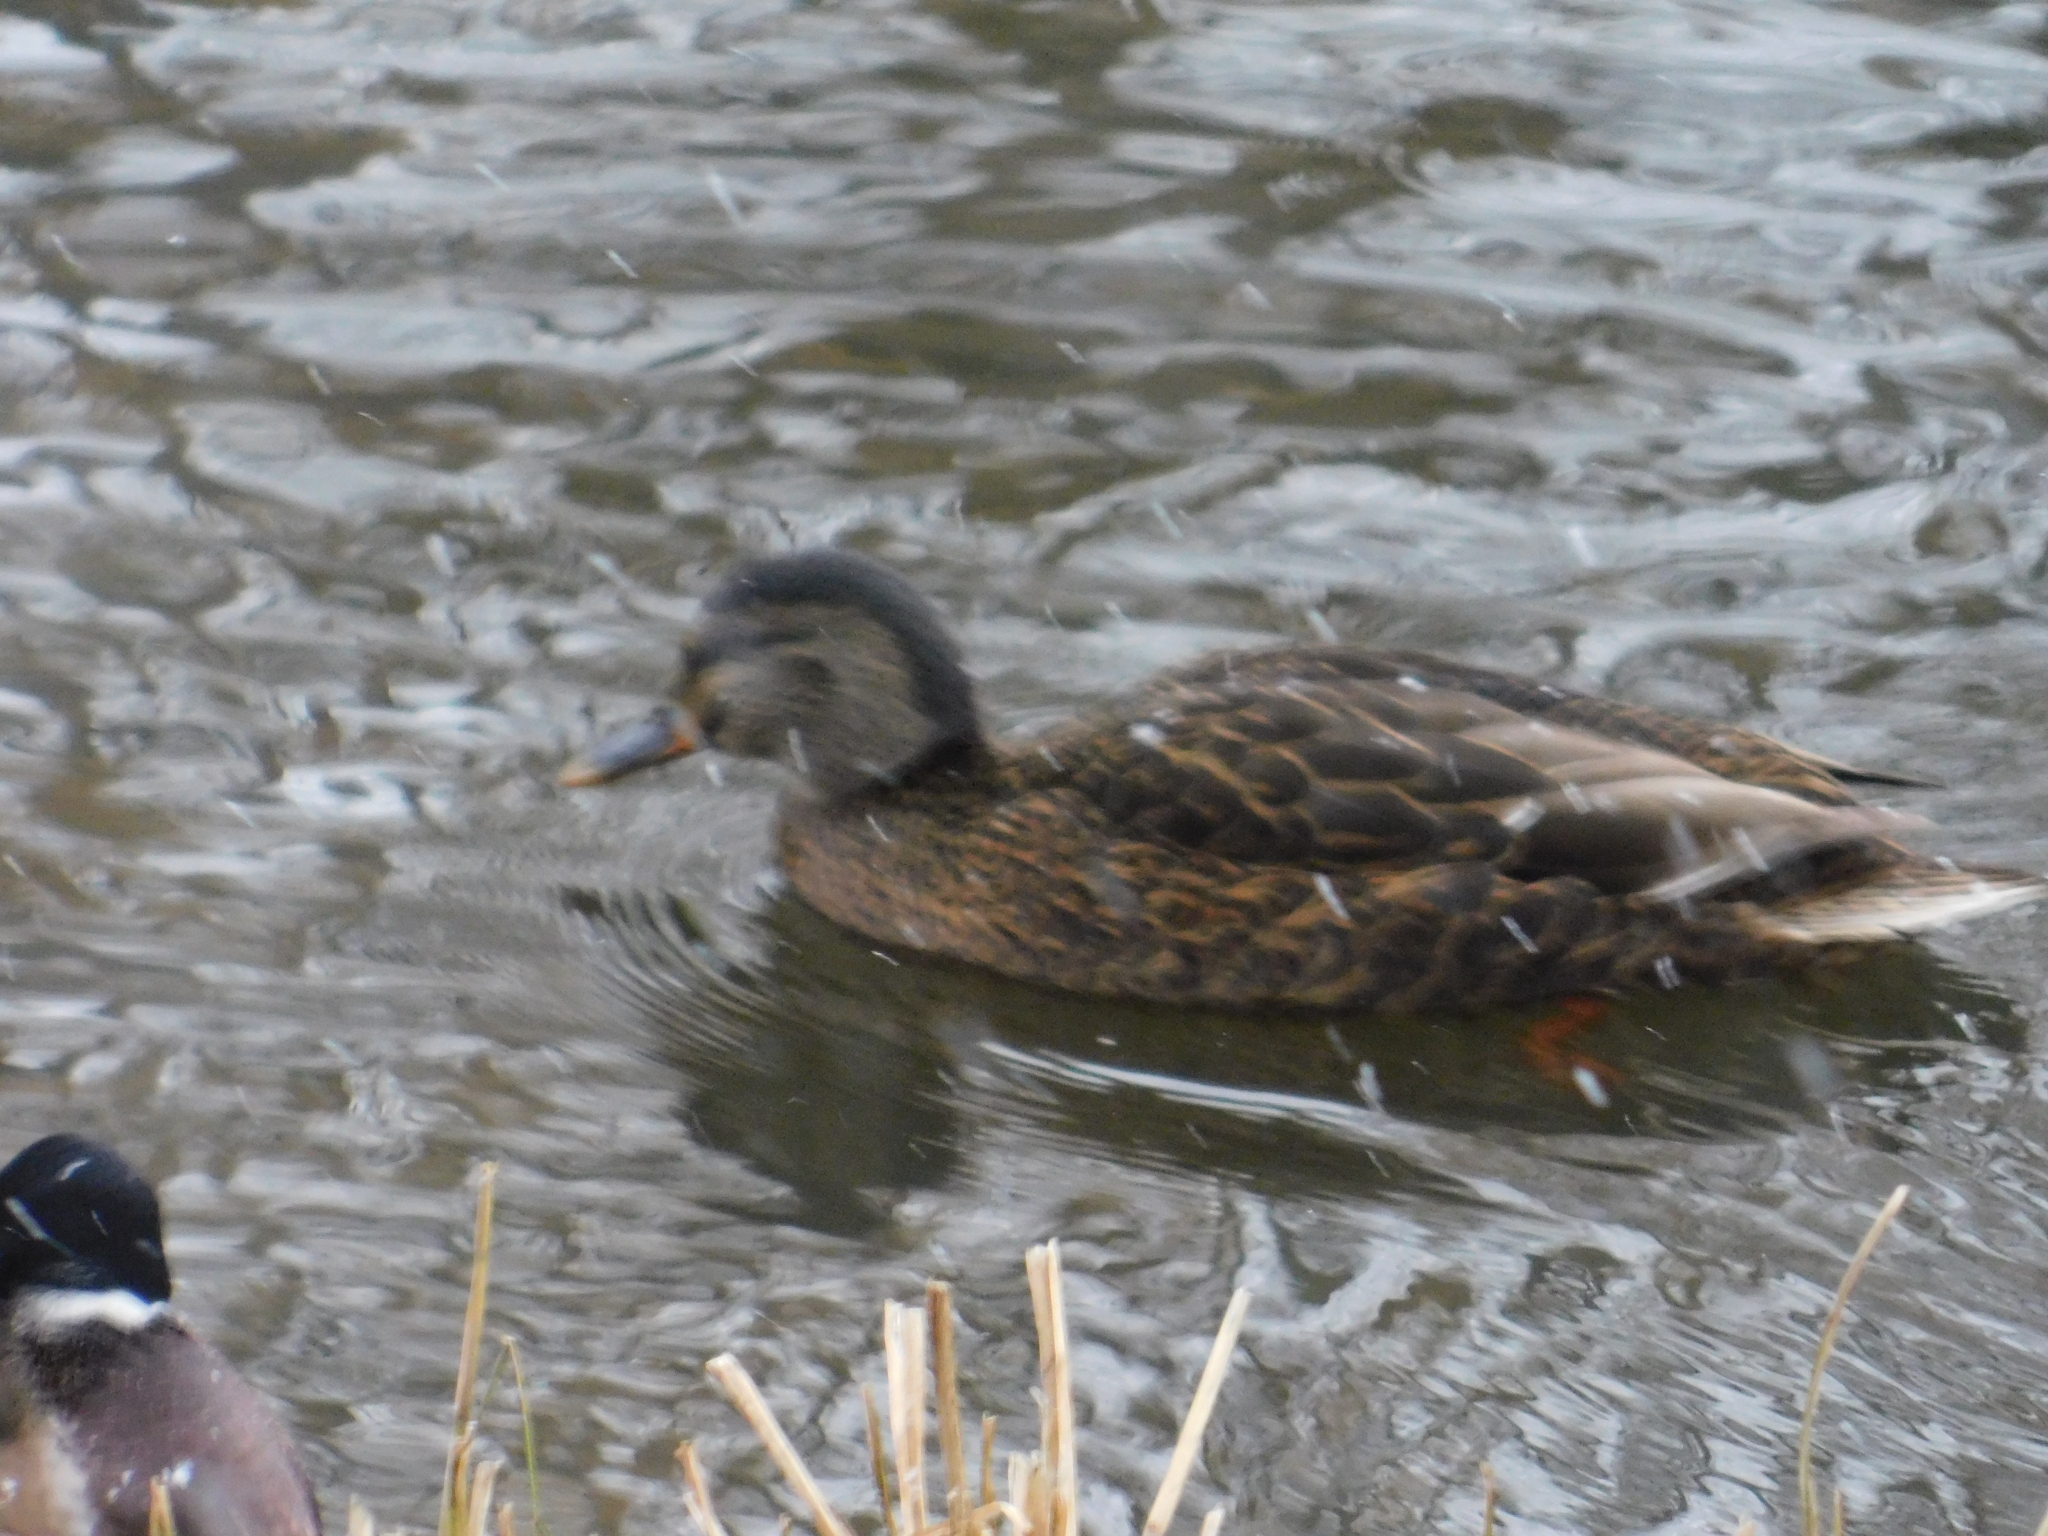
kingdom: Animalia
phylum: Chordata
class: Aves
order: Anseriformes
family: Anatidae
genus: Anas
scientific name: Anas platyrhynchos
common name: Mallard
